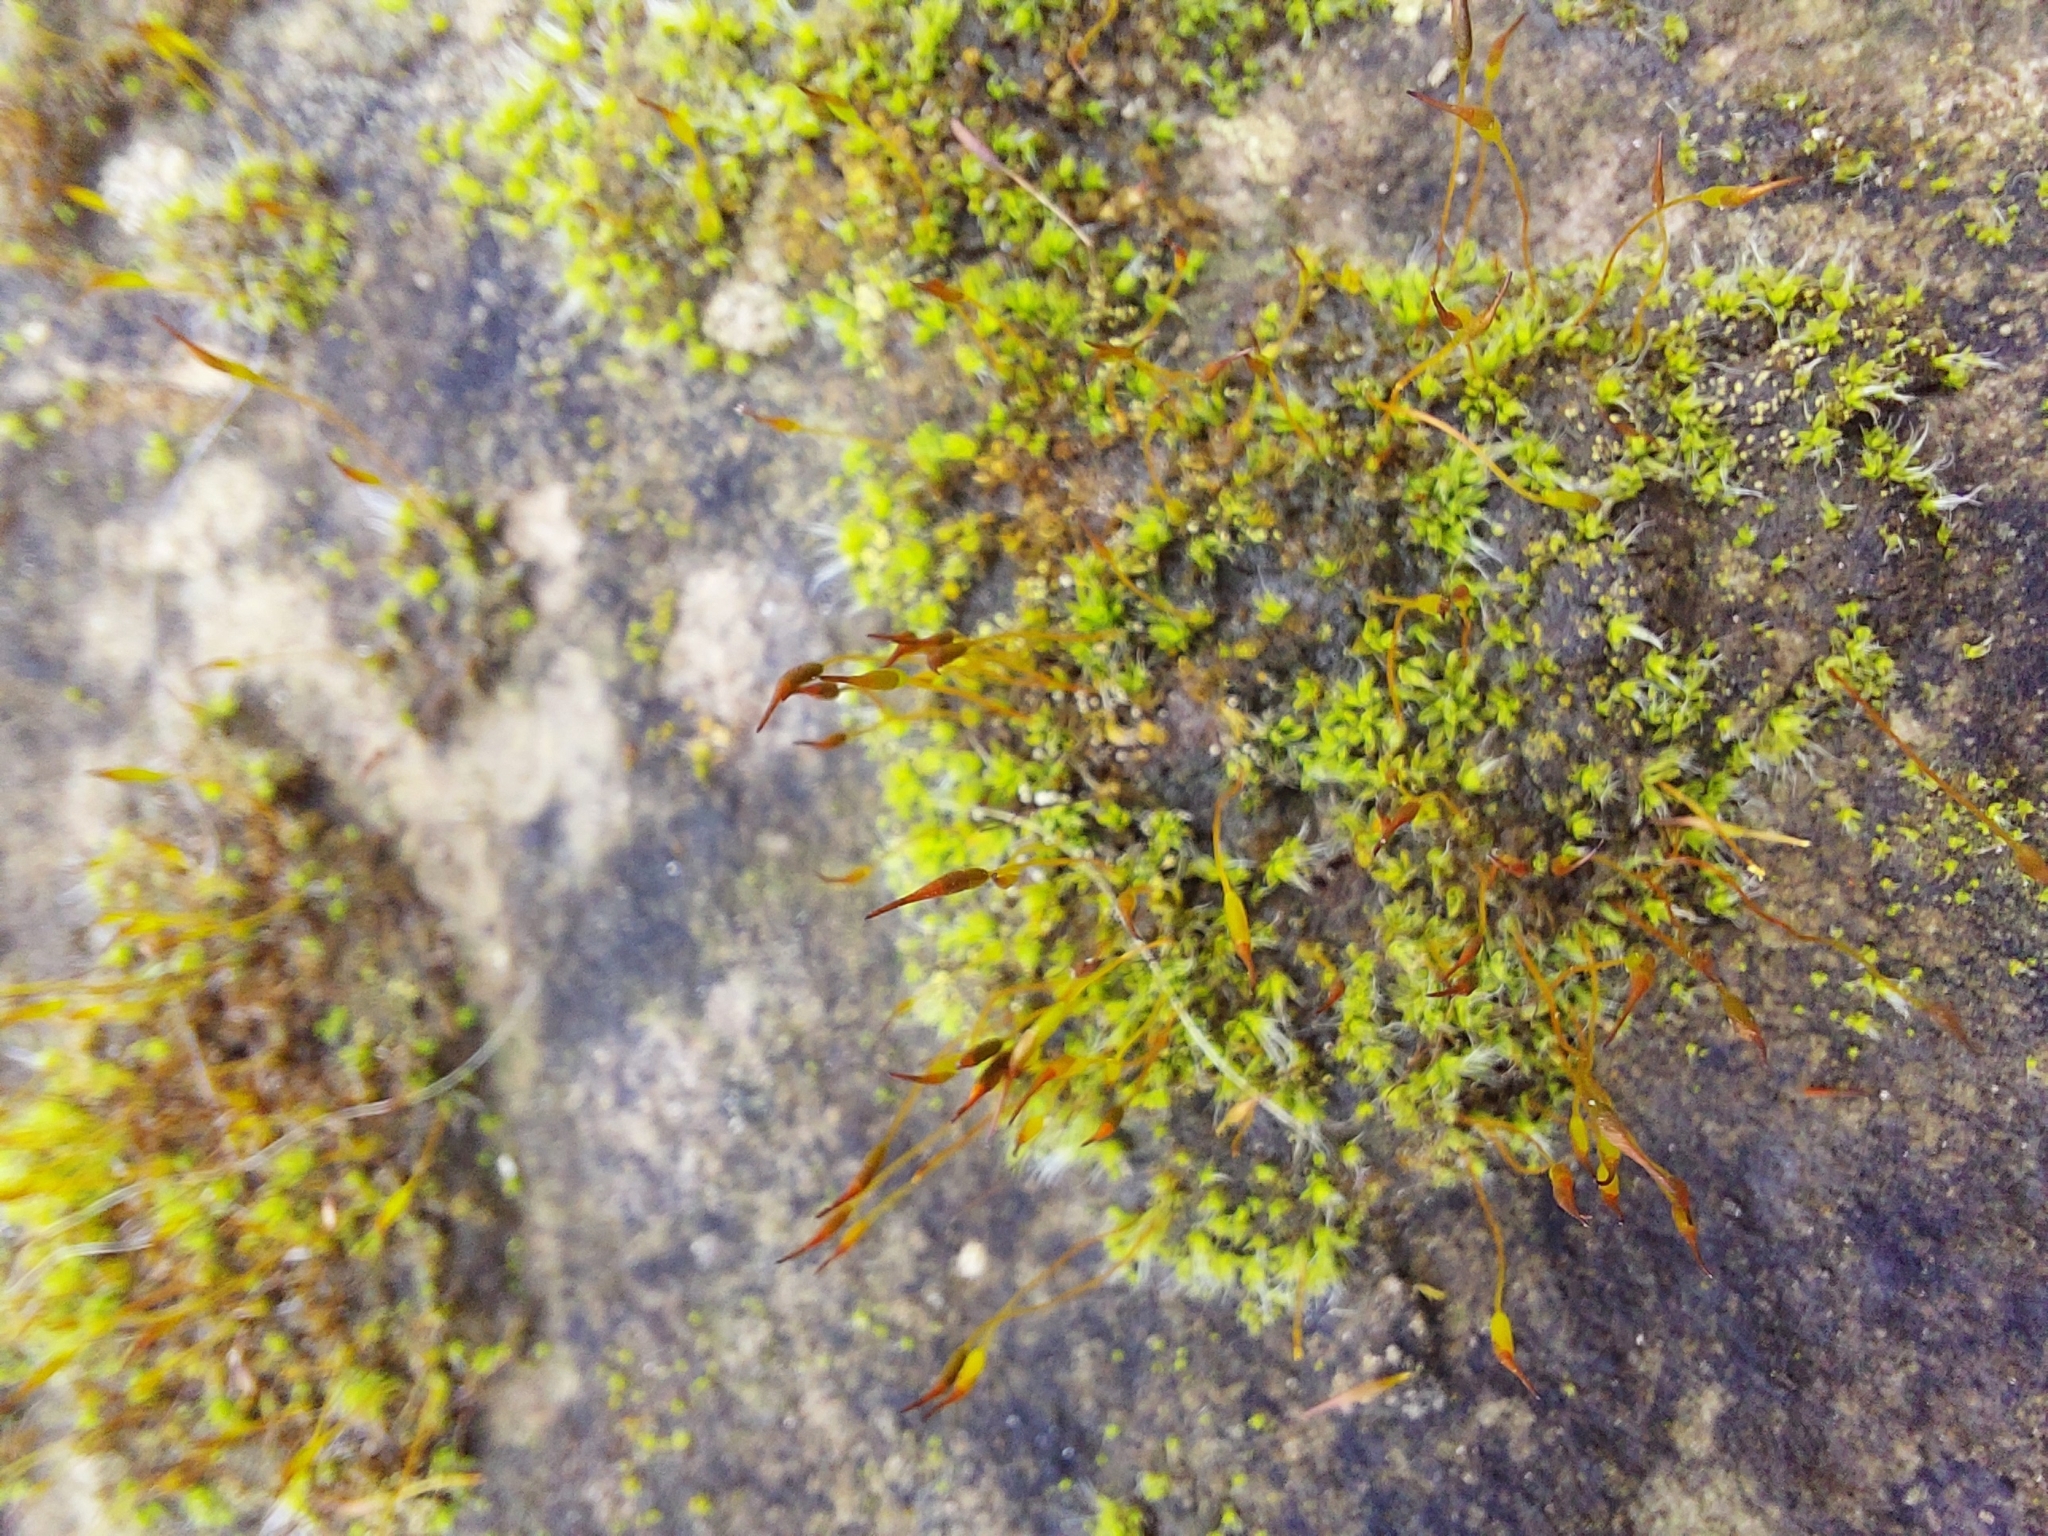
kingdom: Plantae
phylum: Bryophyta
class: Bryopsida
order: Pottiales
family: Pottiaceae
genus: Tortula
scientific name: Tortula muralis
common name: Wall screw-moss
